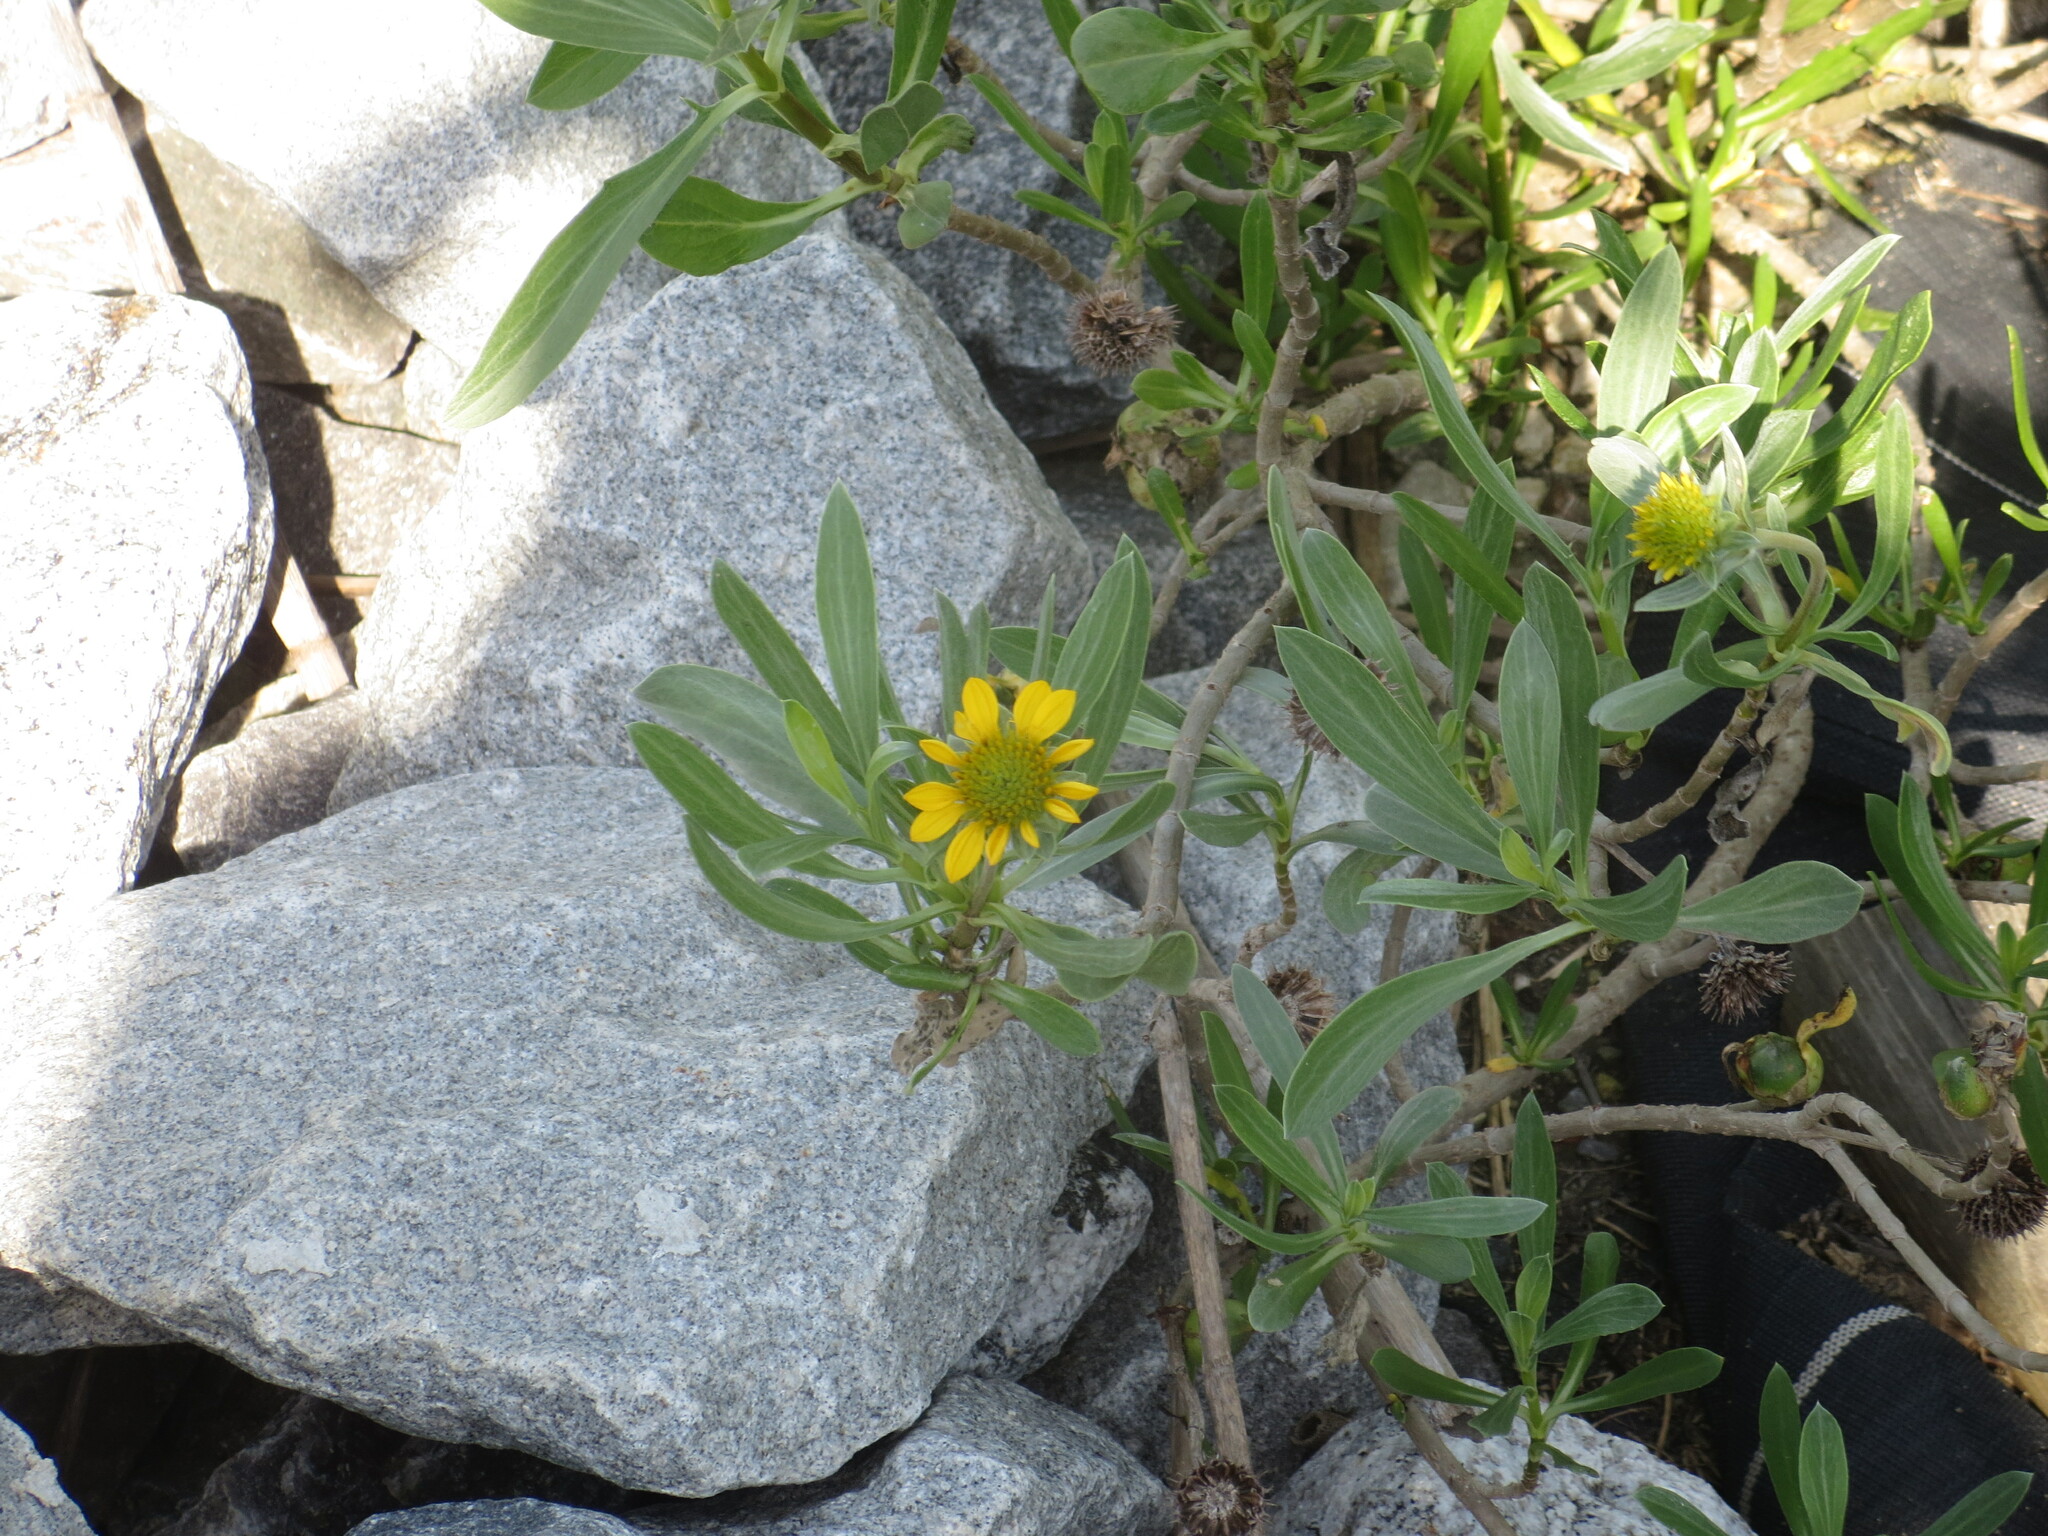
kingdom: Plantae
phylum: Tracheophyta
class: Magnoliopsida
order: Asterales
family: Asteraceae
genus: Borrichia
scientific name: Borrichia frutescens
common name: Sea oxeye
